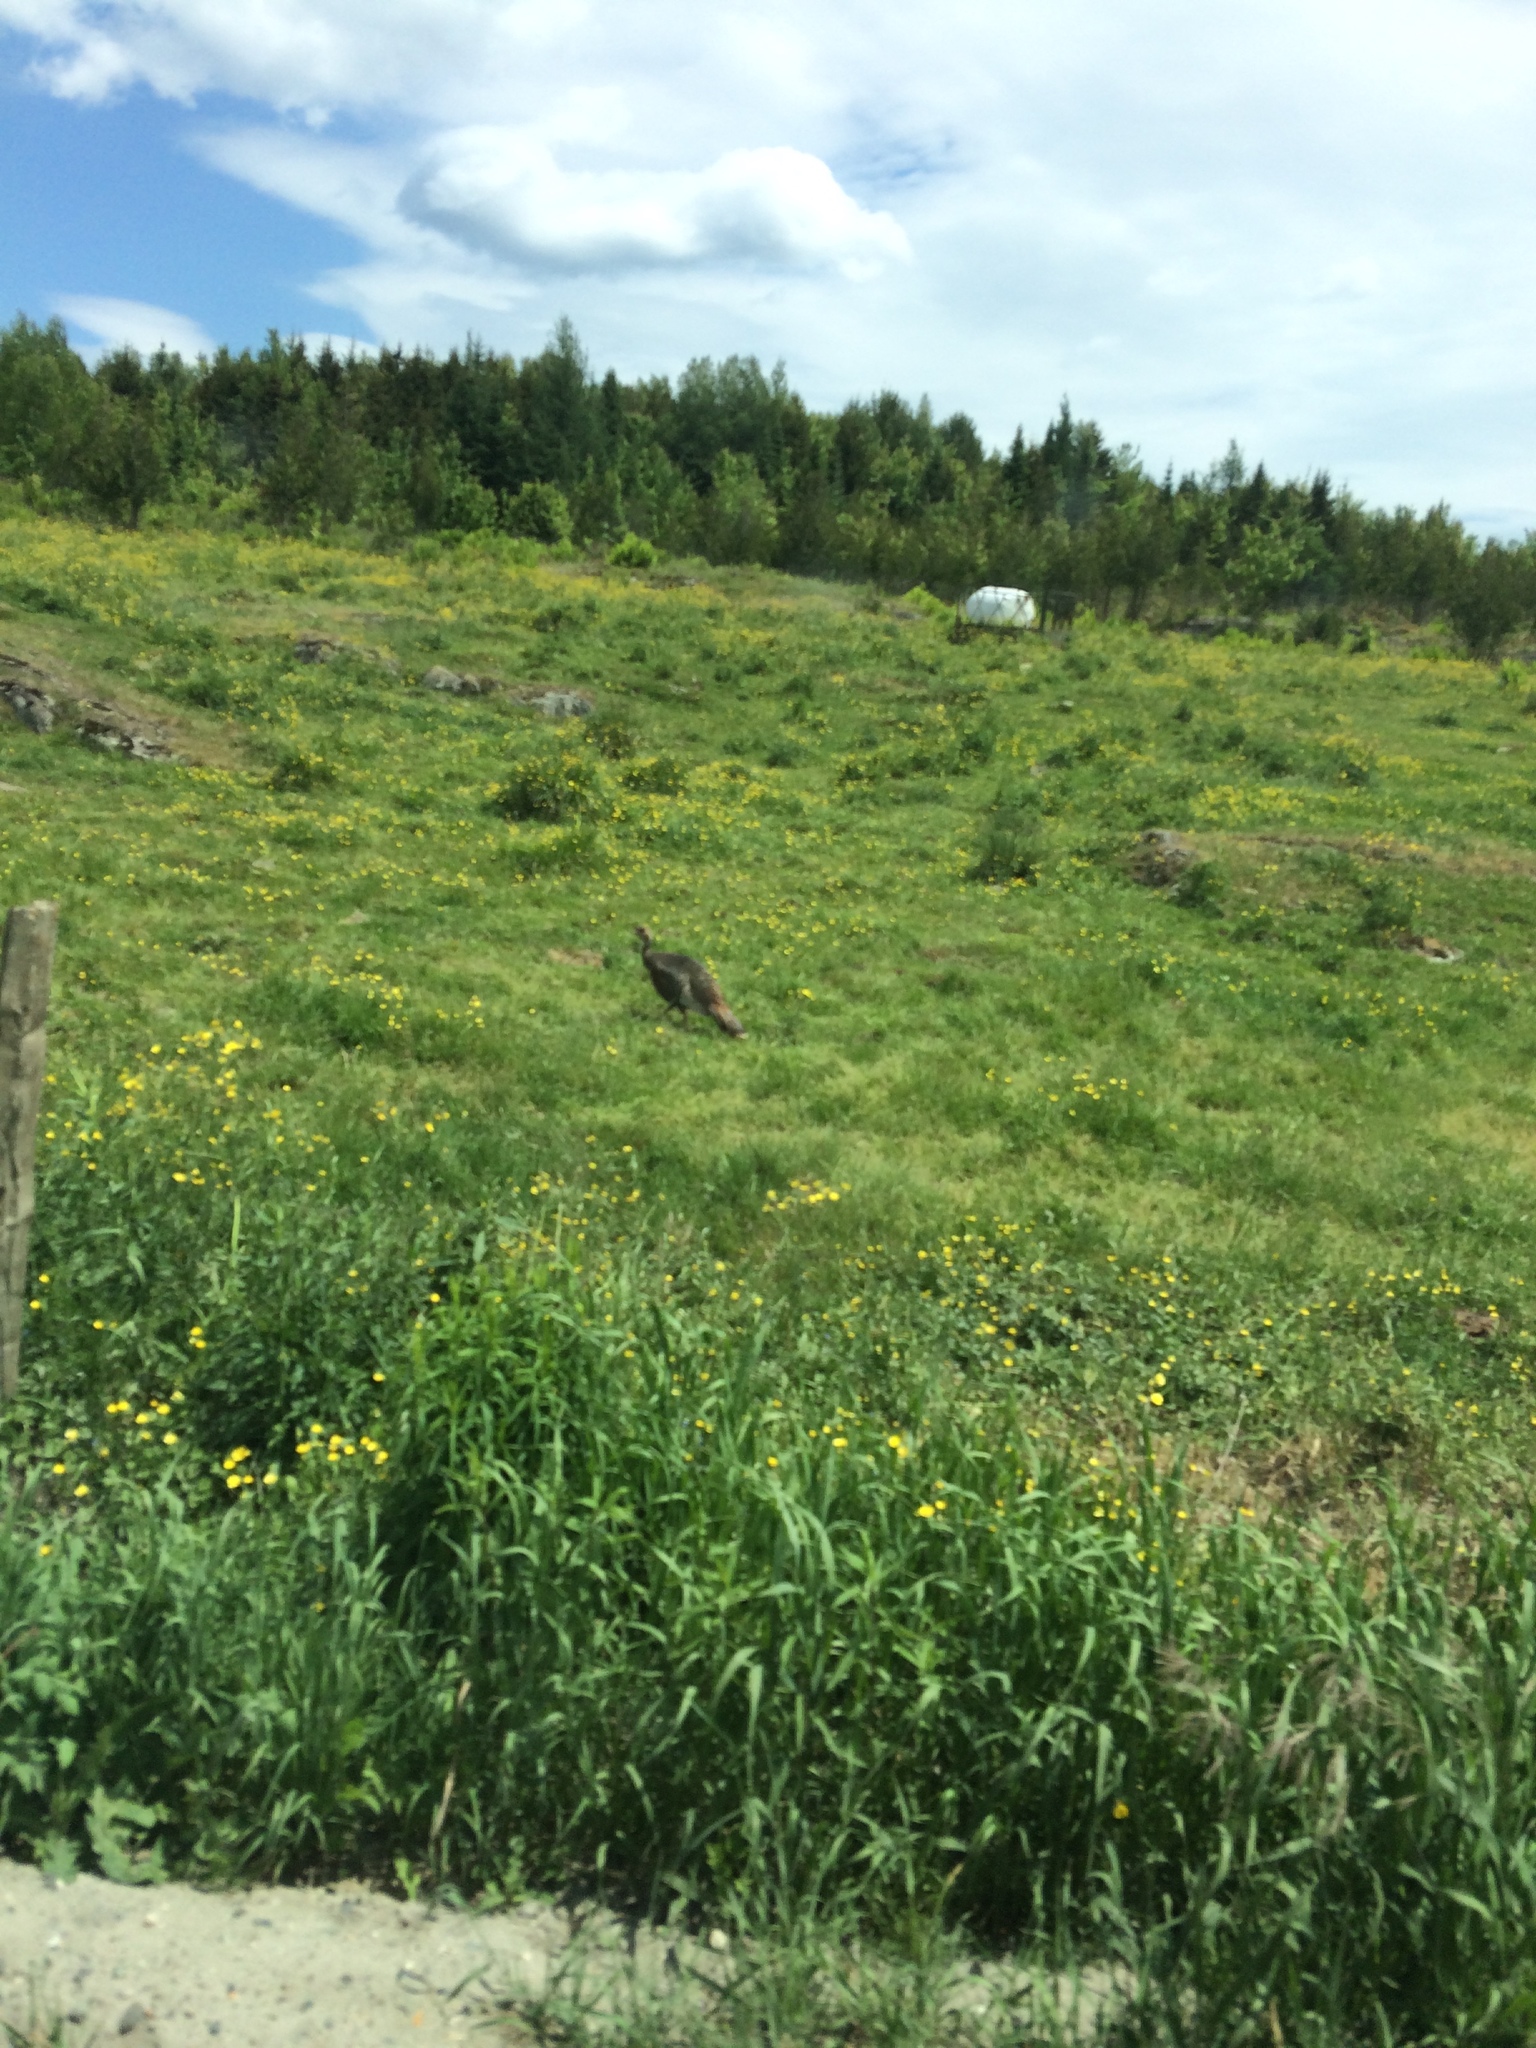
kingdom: Animalia
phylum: Chordata
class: Aves
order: Galliformes
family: Phasianidae
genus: Meleagris
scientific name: Meleagris gallopavo
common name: Wild turkey
